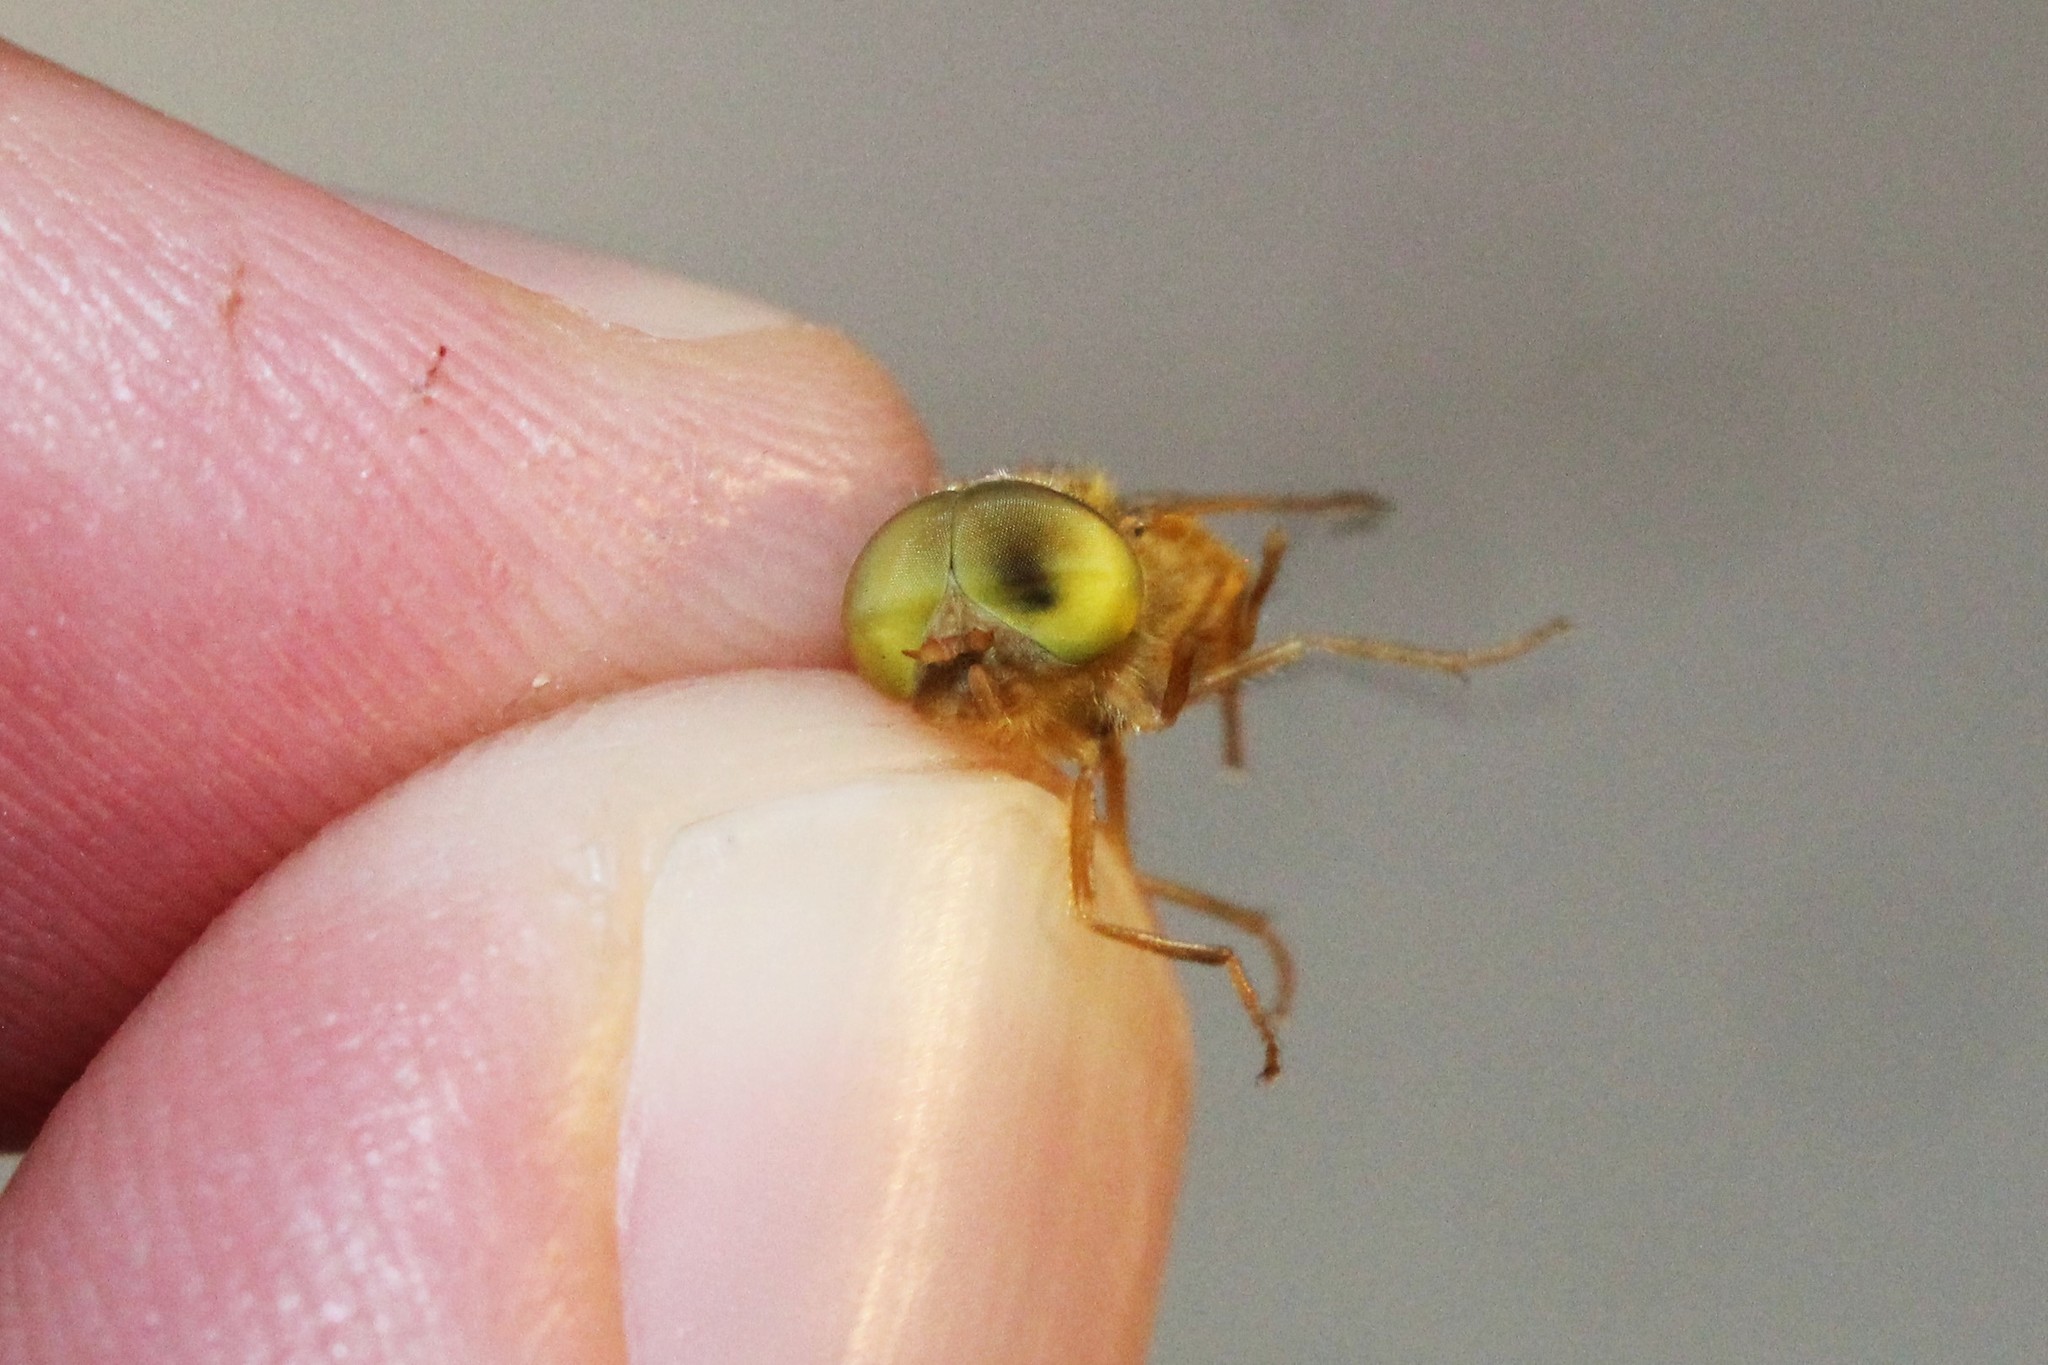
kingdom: Animalia
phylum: Arthropoda
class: Insecta
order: Diptera
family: Tabanidae
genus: Atylotus
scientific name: Atylotus bicolor
